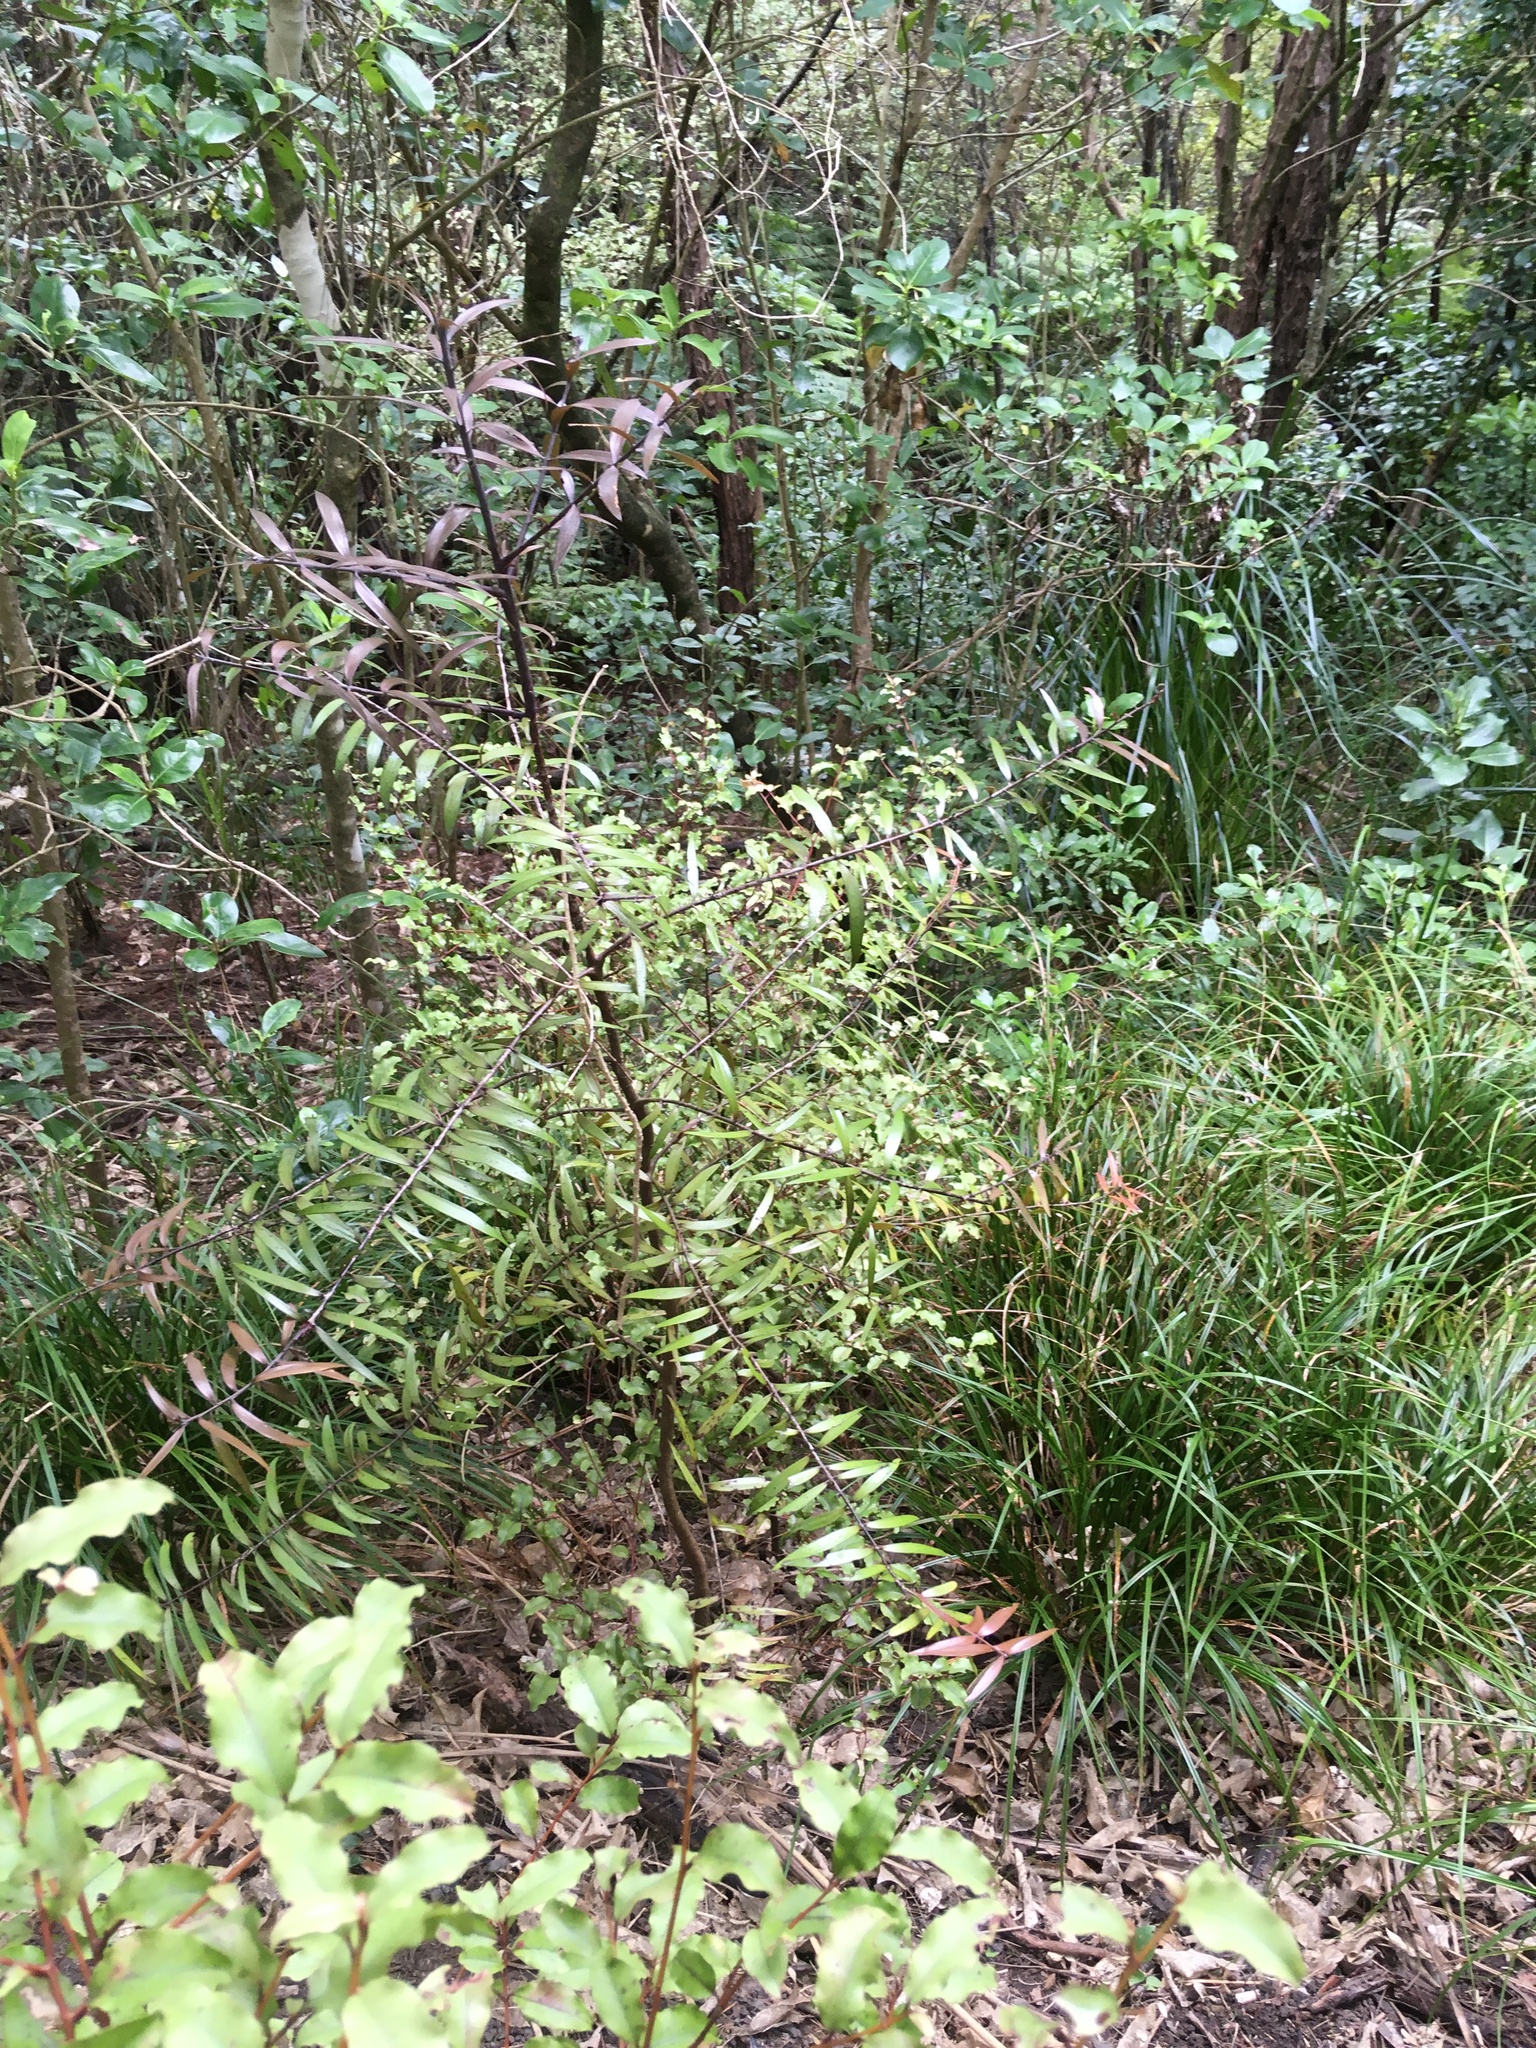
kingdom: Plantae
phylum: Tracheophyta
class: Pinopsida
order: Pinales
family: Araucariaceae
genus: Agathis
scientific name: Agathis australis
